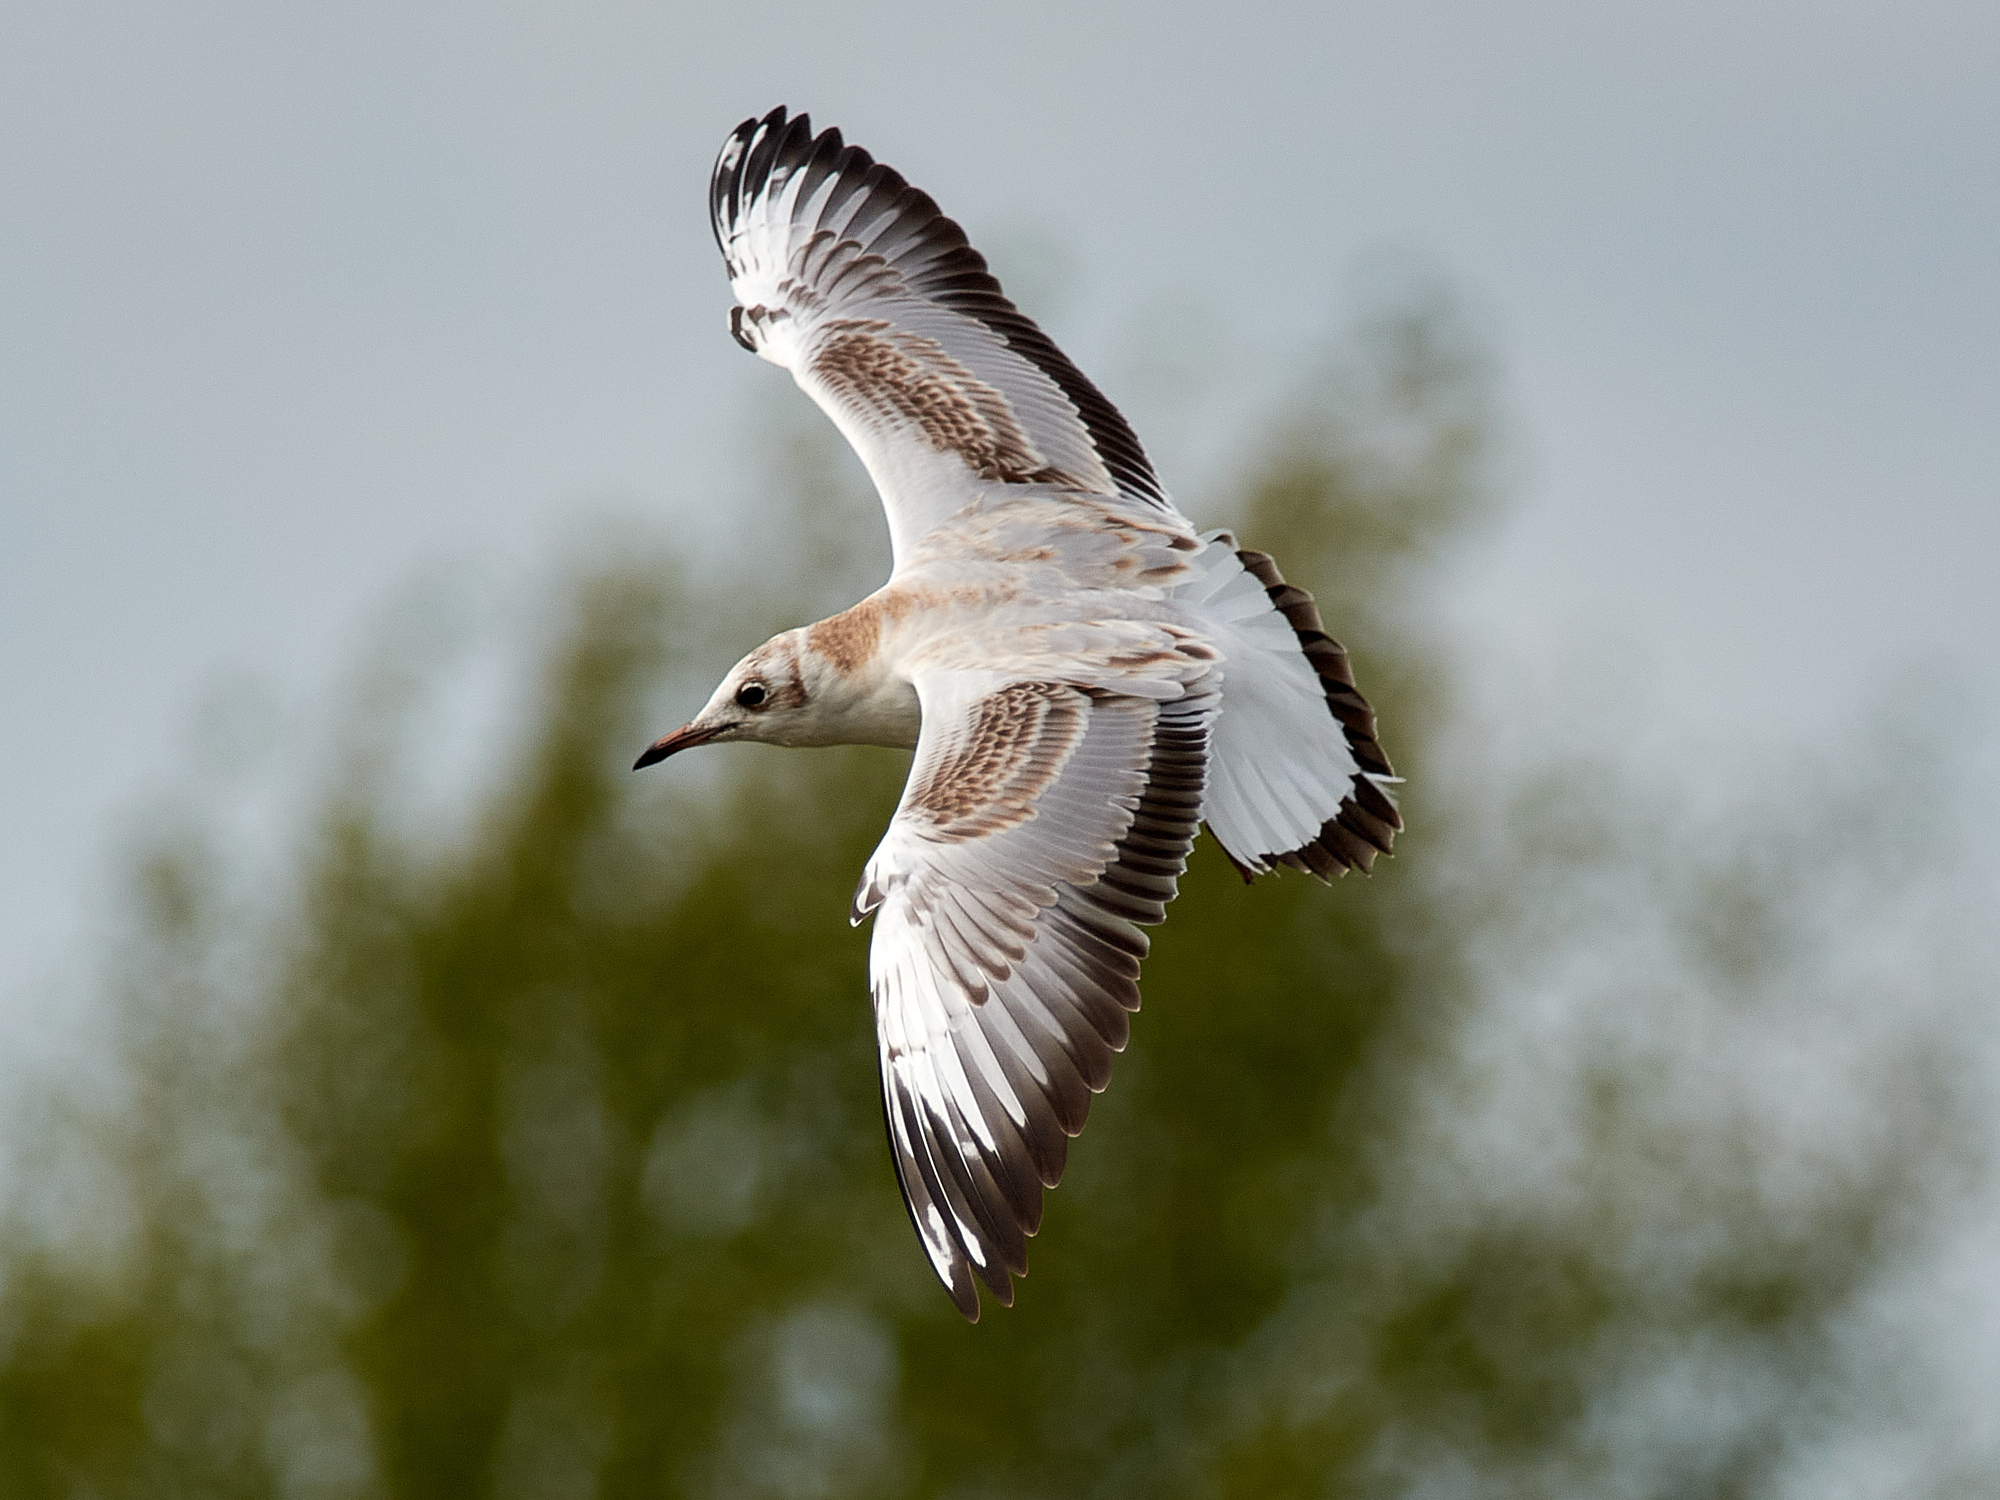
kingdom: Animalia
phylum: Chordata
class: Aves
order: Charadriiformes
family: Laridae
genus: Chroicocephalus
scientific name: Chroicocephalus ridibundus
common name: Black-headed gull
